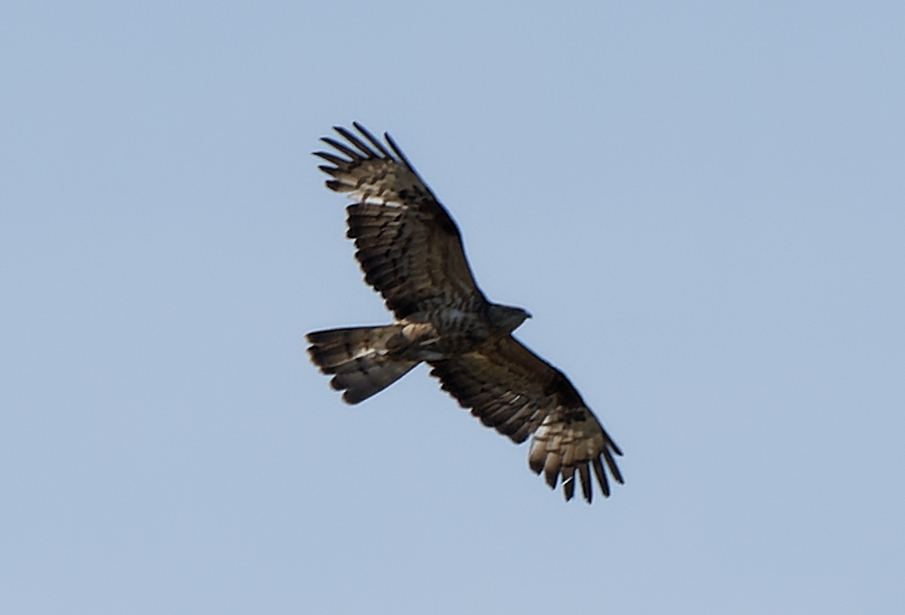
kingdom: Animalia
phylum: Chordata
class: Aves
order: Accipitriformes
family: Accipitridae
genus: Pernis
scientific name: Pernis apivorus
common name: European honey buzzard
